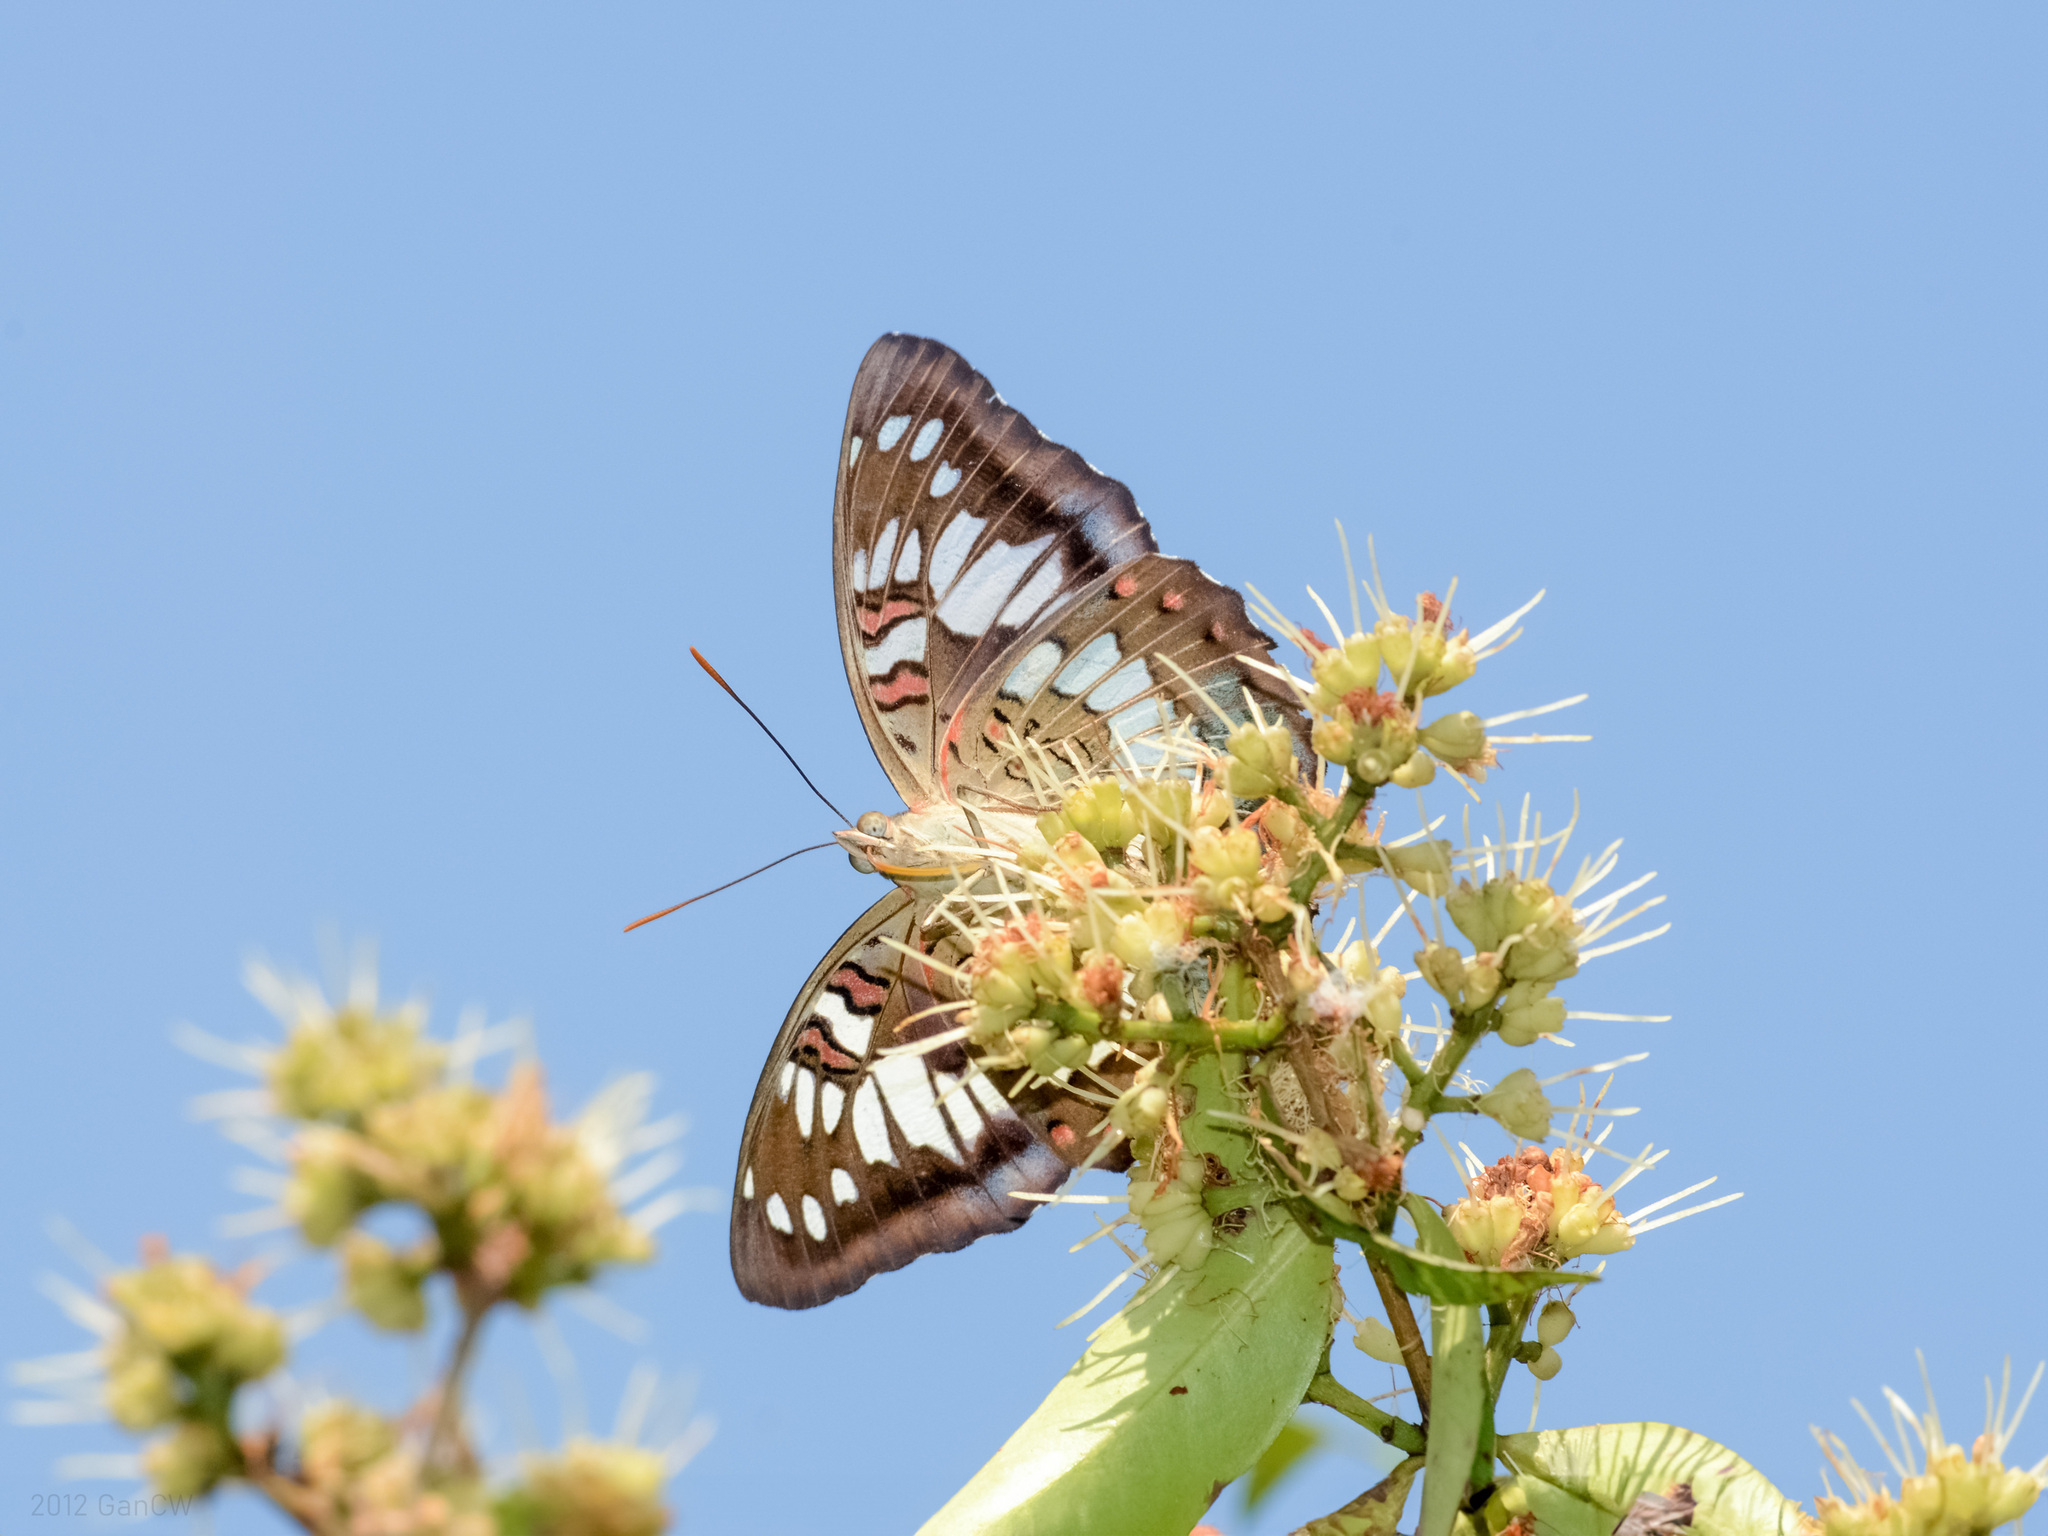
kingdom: Animalia
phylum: Arthropoda
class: Insecta
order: Lepidoptera
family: Nymphalidae
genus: Euthalia
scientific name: Euthalia adonia
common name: Green baron
